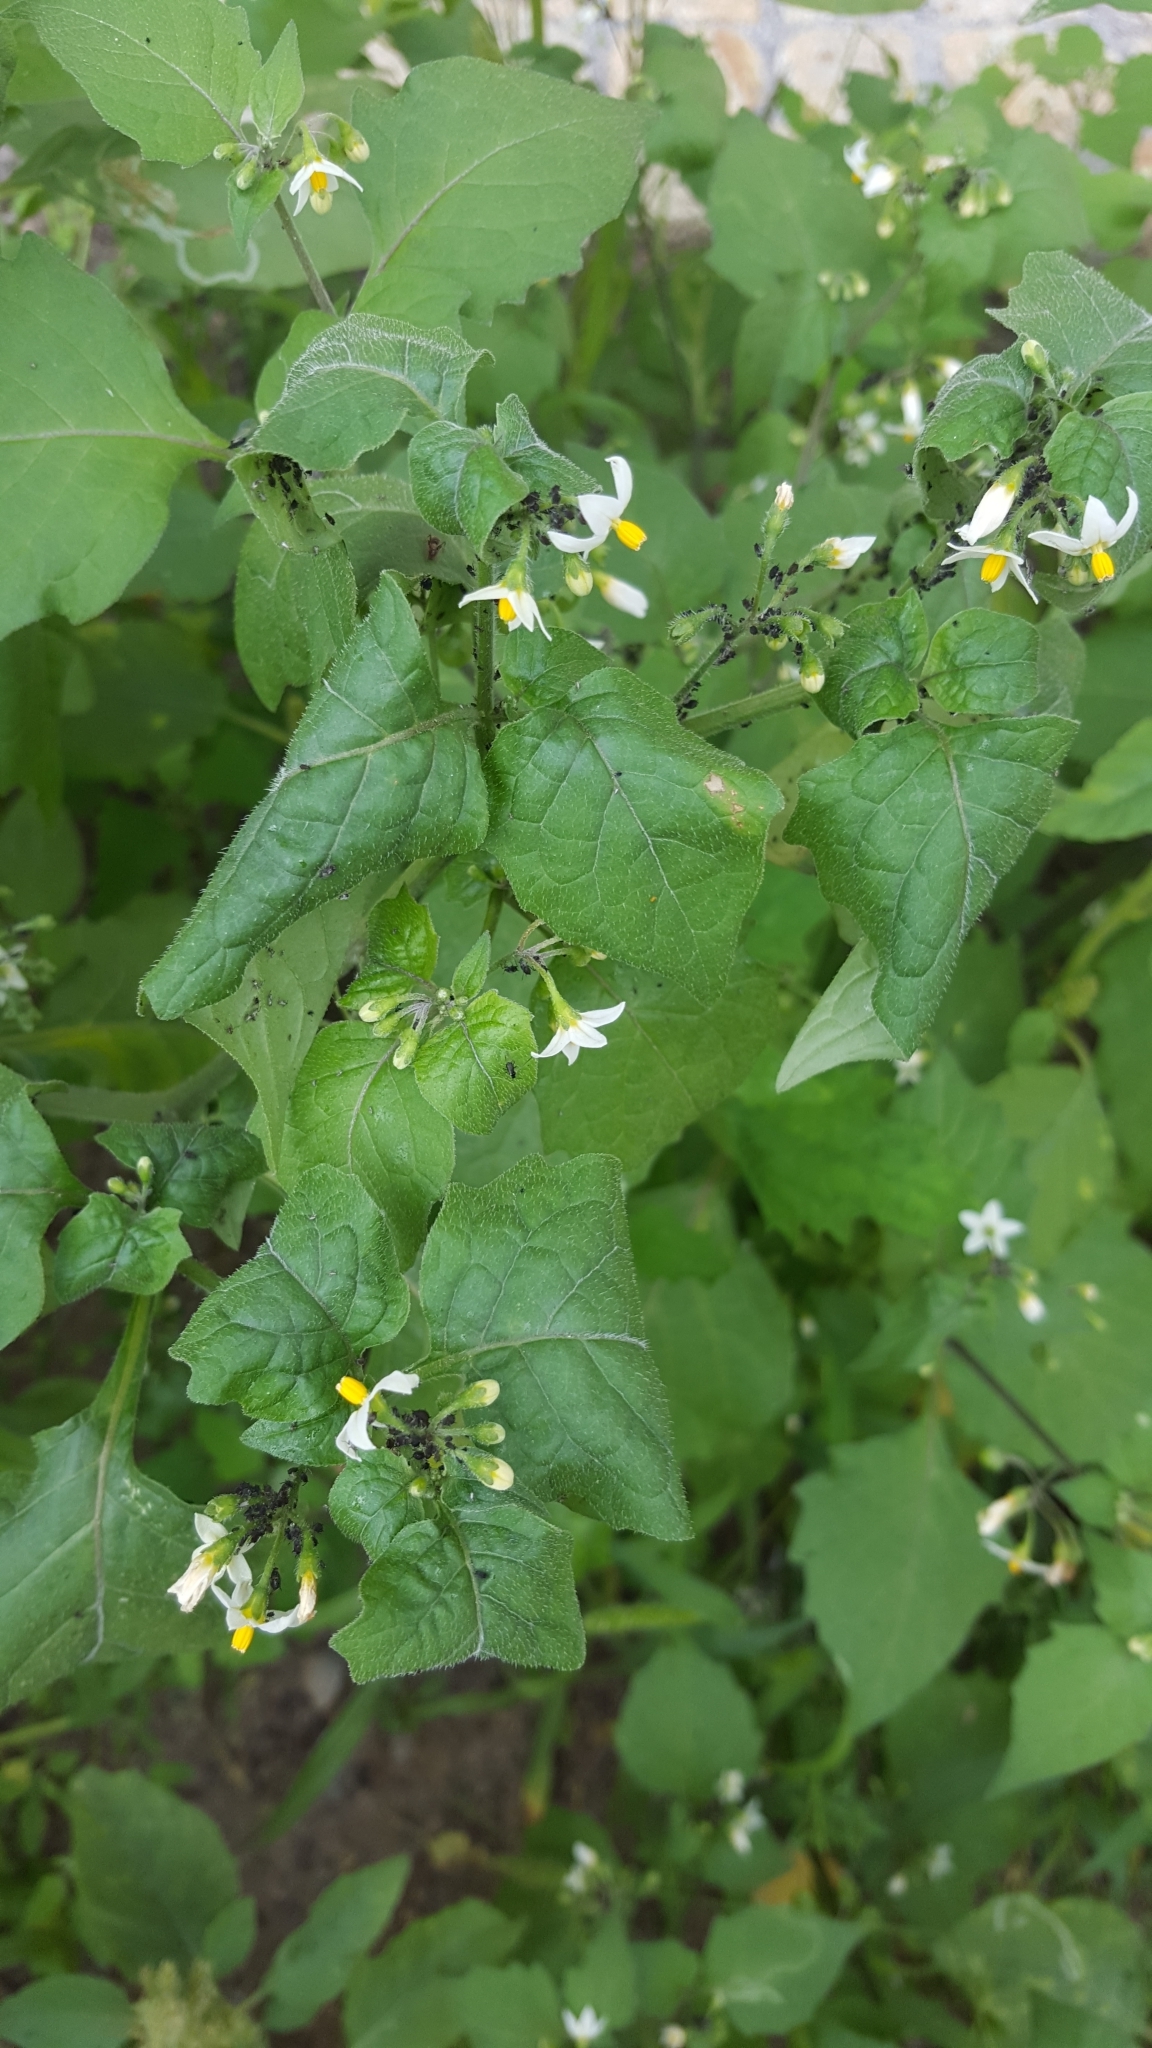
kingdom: Plantae
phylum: Tracheophyta
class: Magnoliopsida
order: Solanales
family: Solanaceae
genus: Solanum
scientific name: Solanum nigrum
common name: Black nightshade
